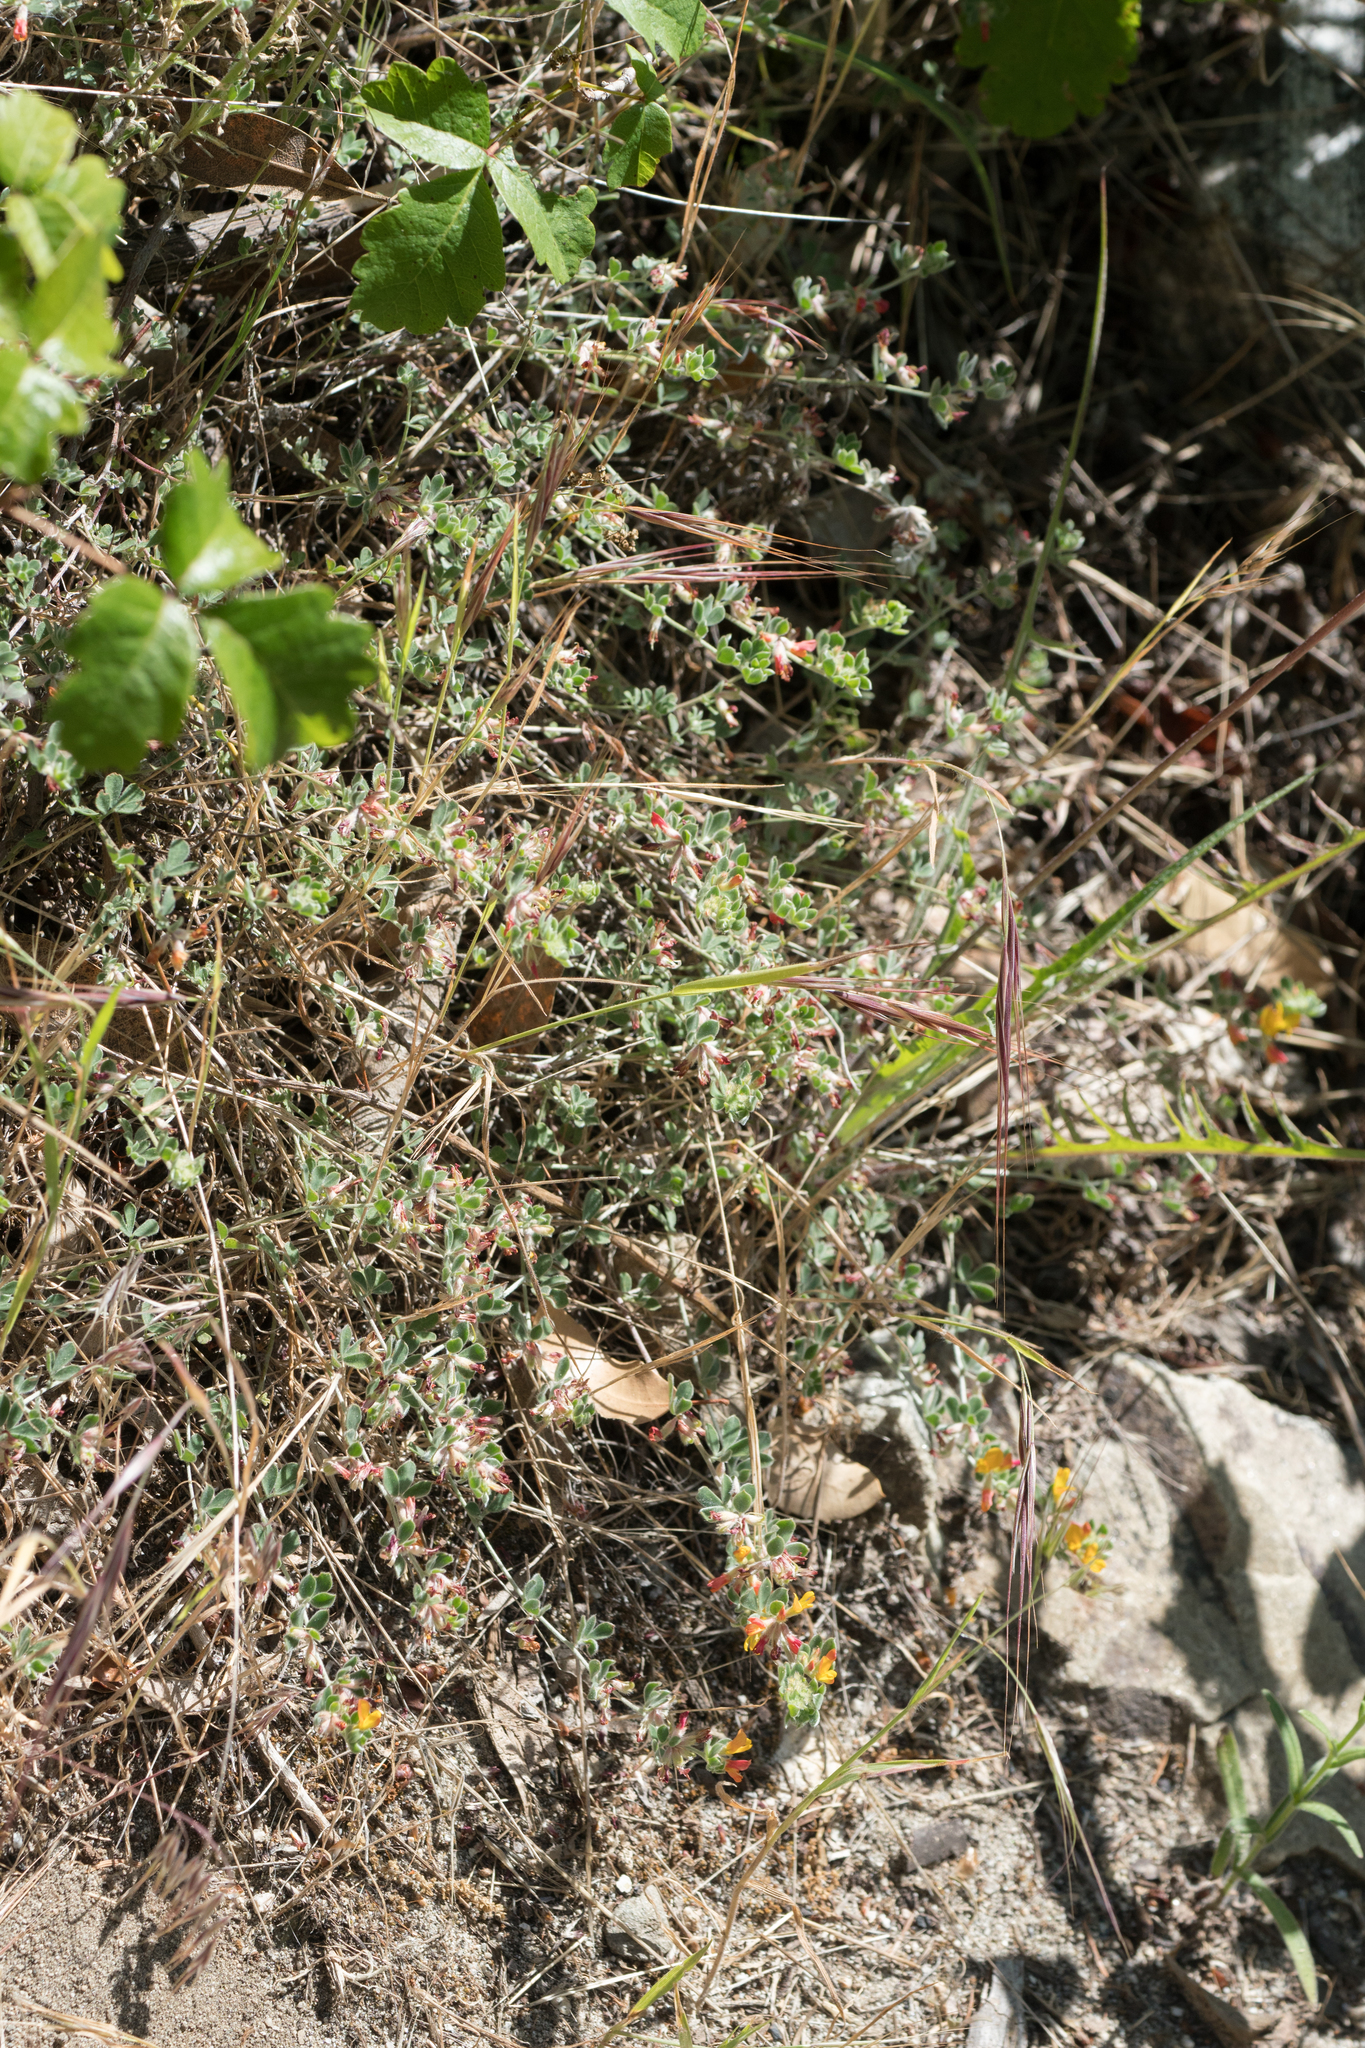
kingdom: Plantae
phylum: Tracheophyta
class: Magnoliopsida
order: Fabales
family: Fabaceae
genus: Acmispon
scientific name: Acmispon argophyllus
